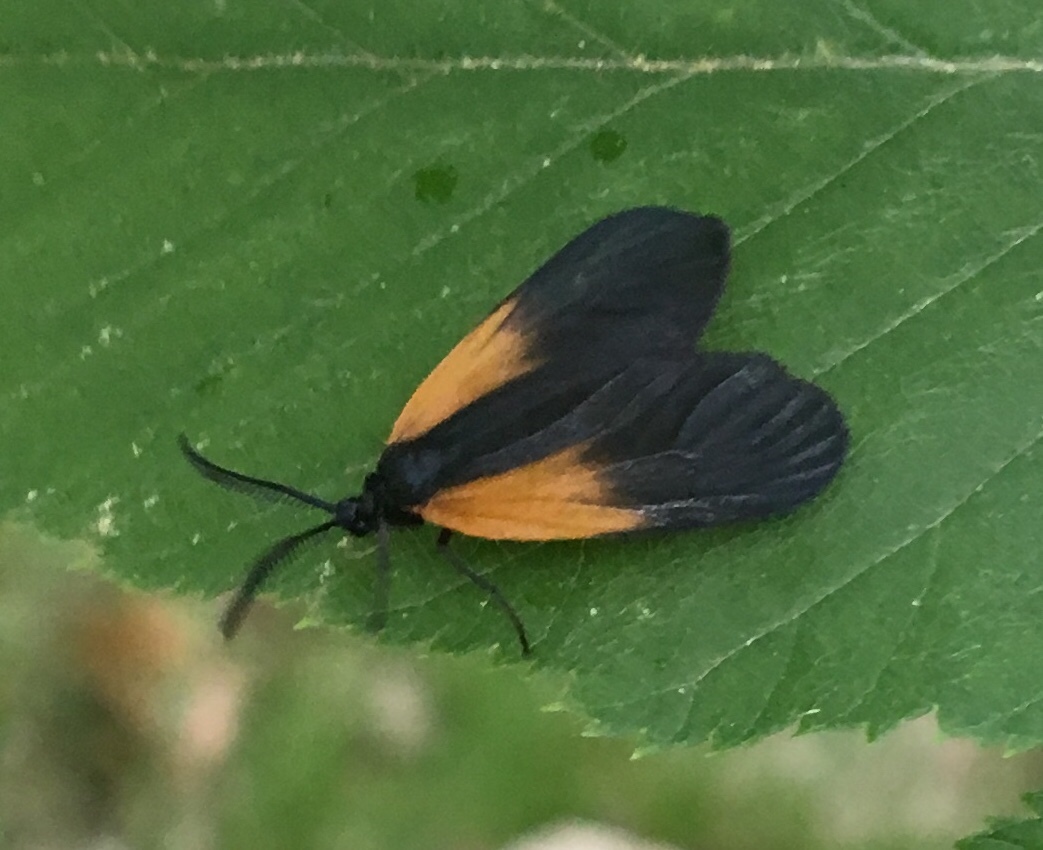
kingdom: Animalia
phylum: Arthropoda
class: Insecta
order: Lepidoptera
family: Zygaenidae
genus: Malthaca
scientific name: Malthaca dimidiata
